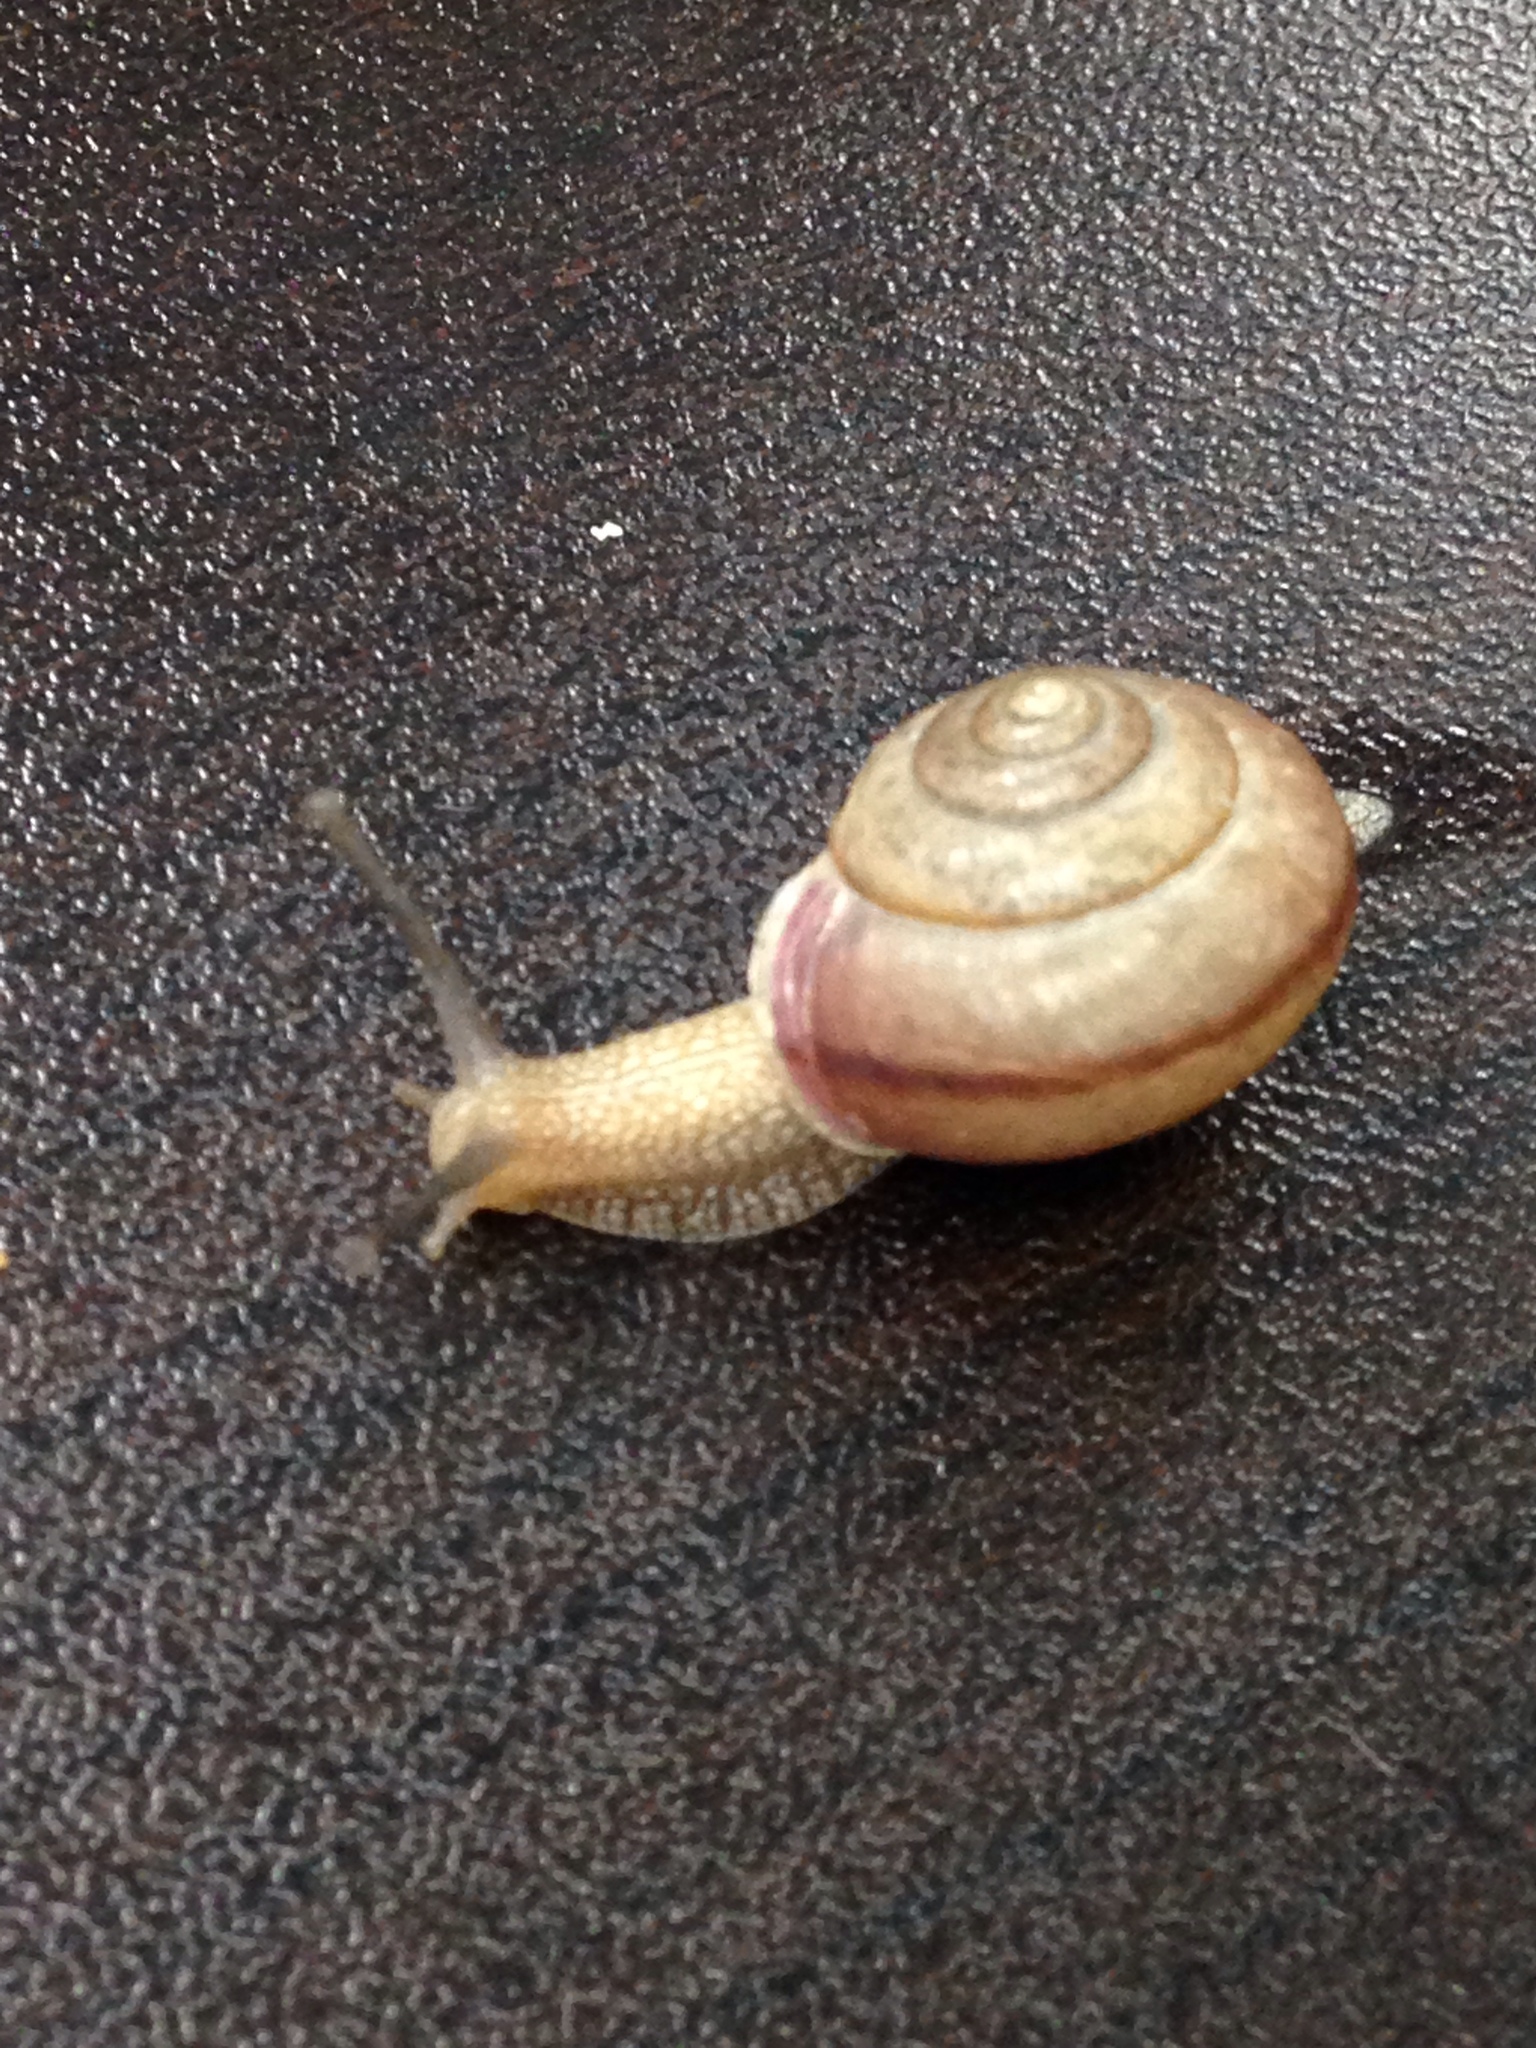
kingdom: Animalia
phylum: Mollusca
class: Gastropoda
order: Stylommatophora
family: Camaenidae
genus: Bradybaena
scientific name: Bradybaena similaris
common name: Asian trampsnail
